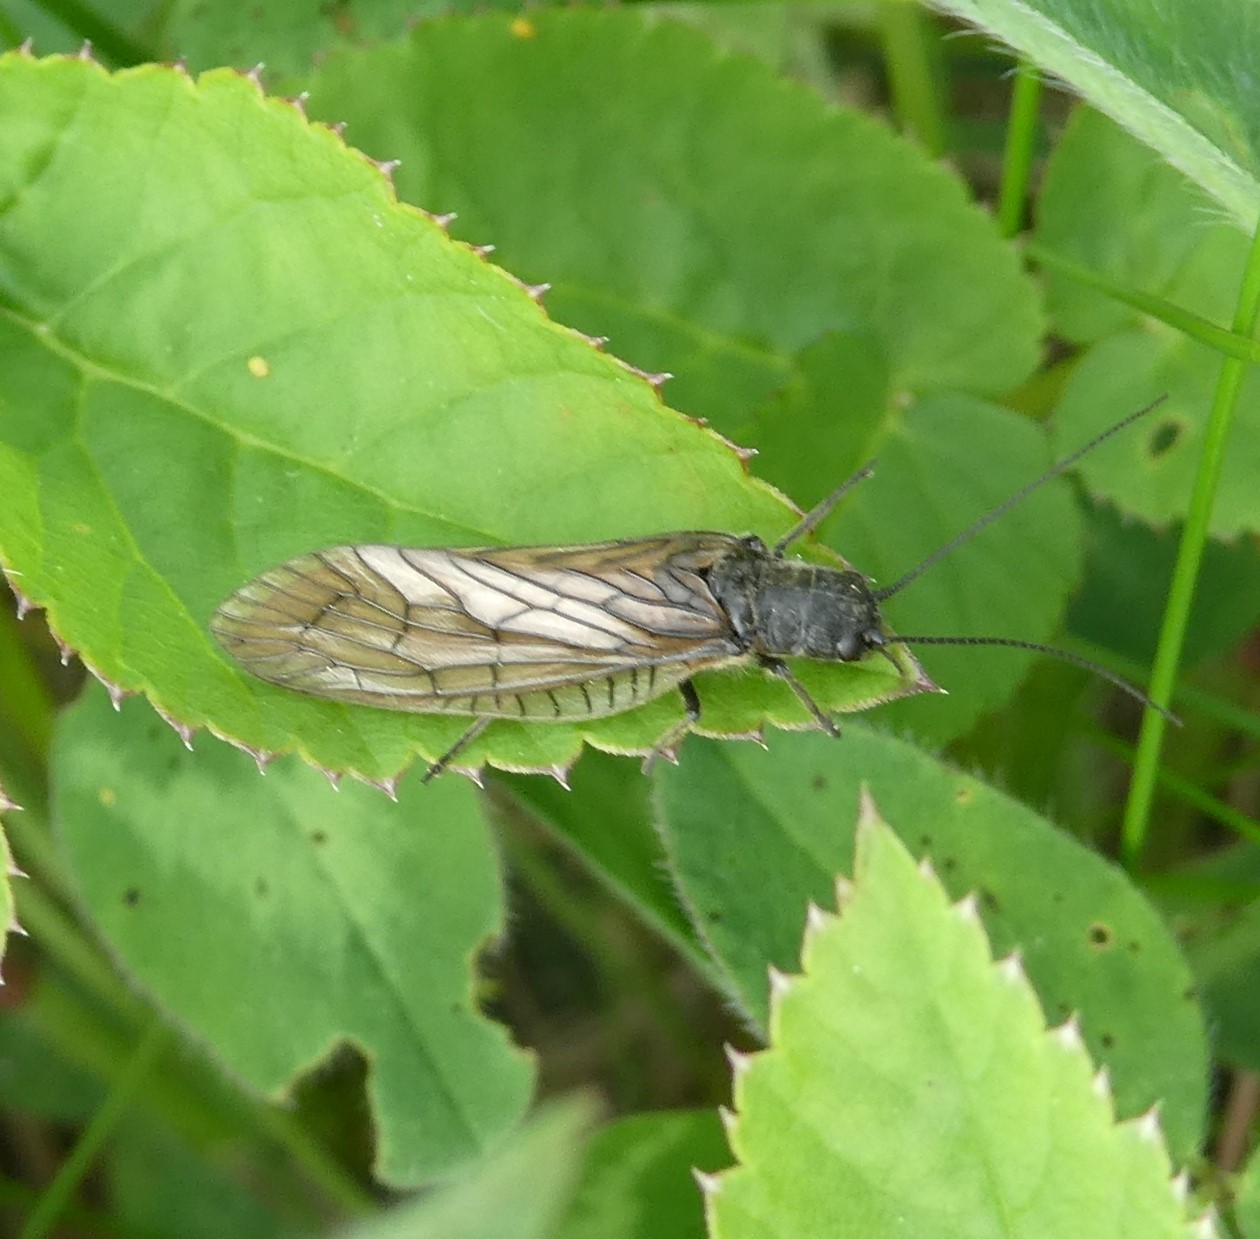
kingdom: Animalia
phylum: Arthropoda
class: Insecta
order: Megaloptera
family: Sialidae
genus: Sialis
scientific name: Sialis
